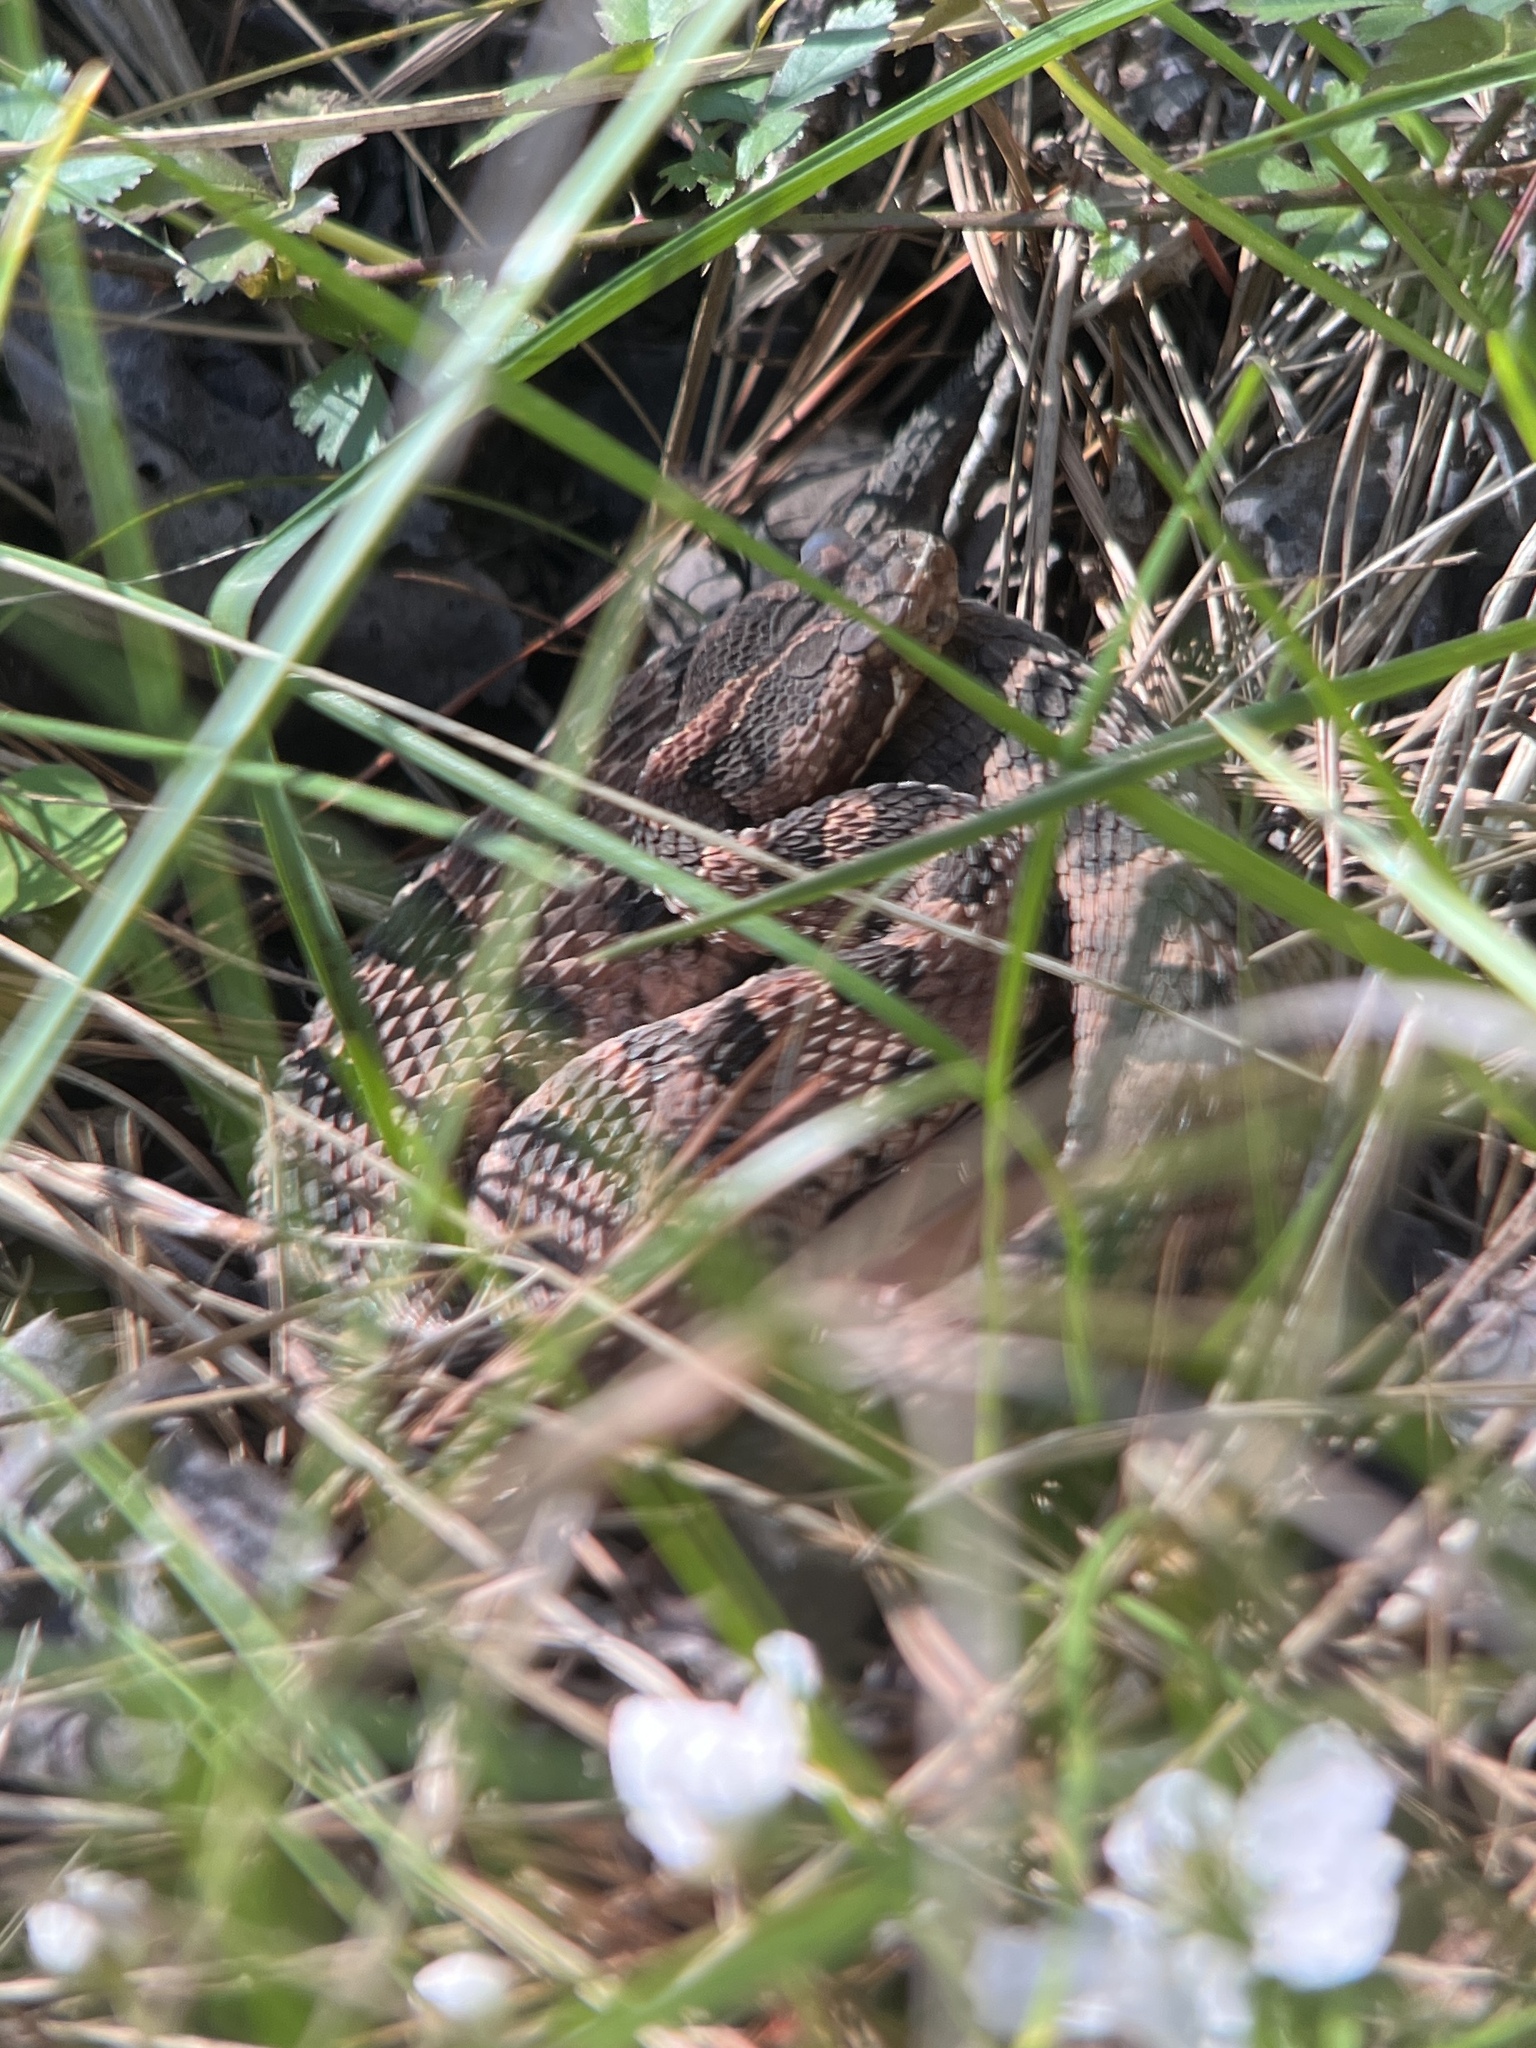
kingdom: Animalia
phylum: Chordata
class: Squamata
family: Viperidae
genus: Sistrurus
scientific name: Sistrurus miliarius
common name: Pygmy rattlesnake
